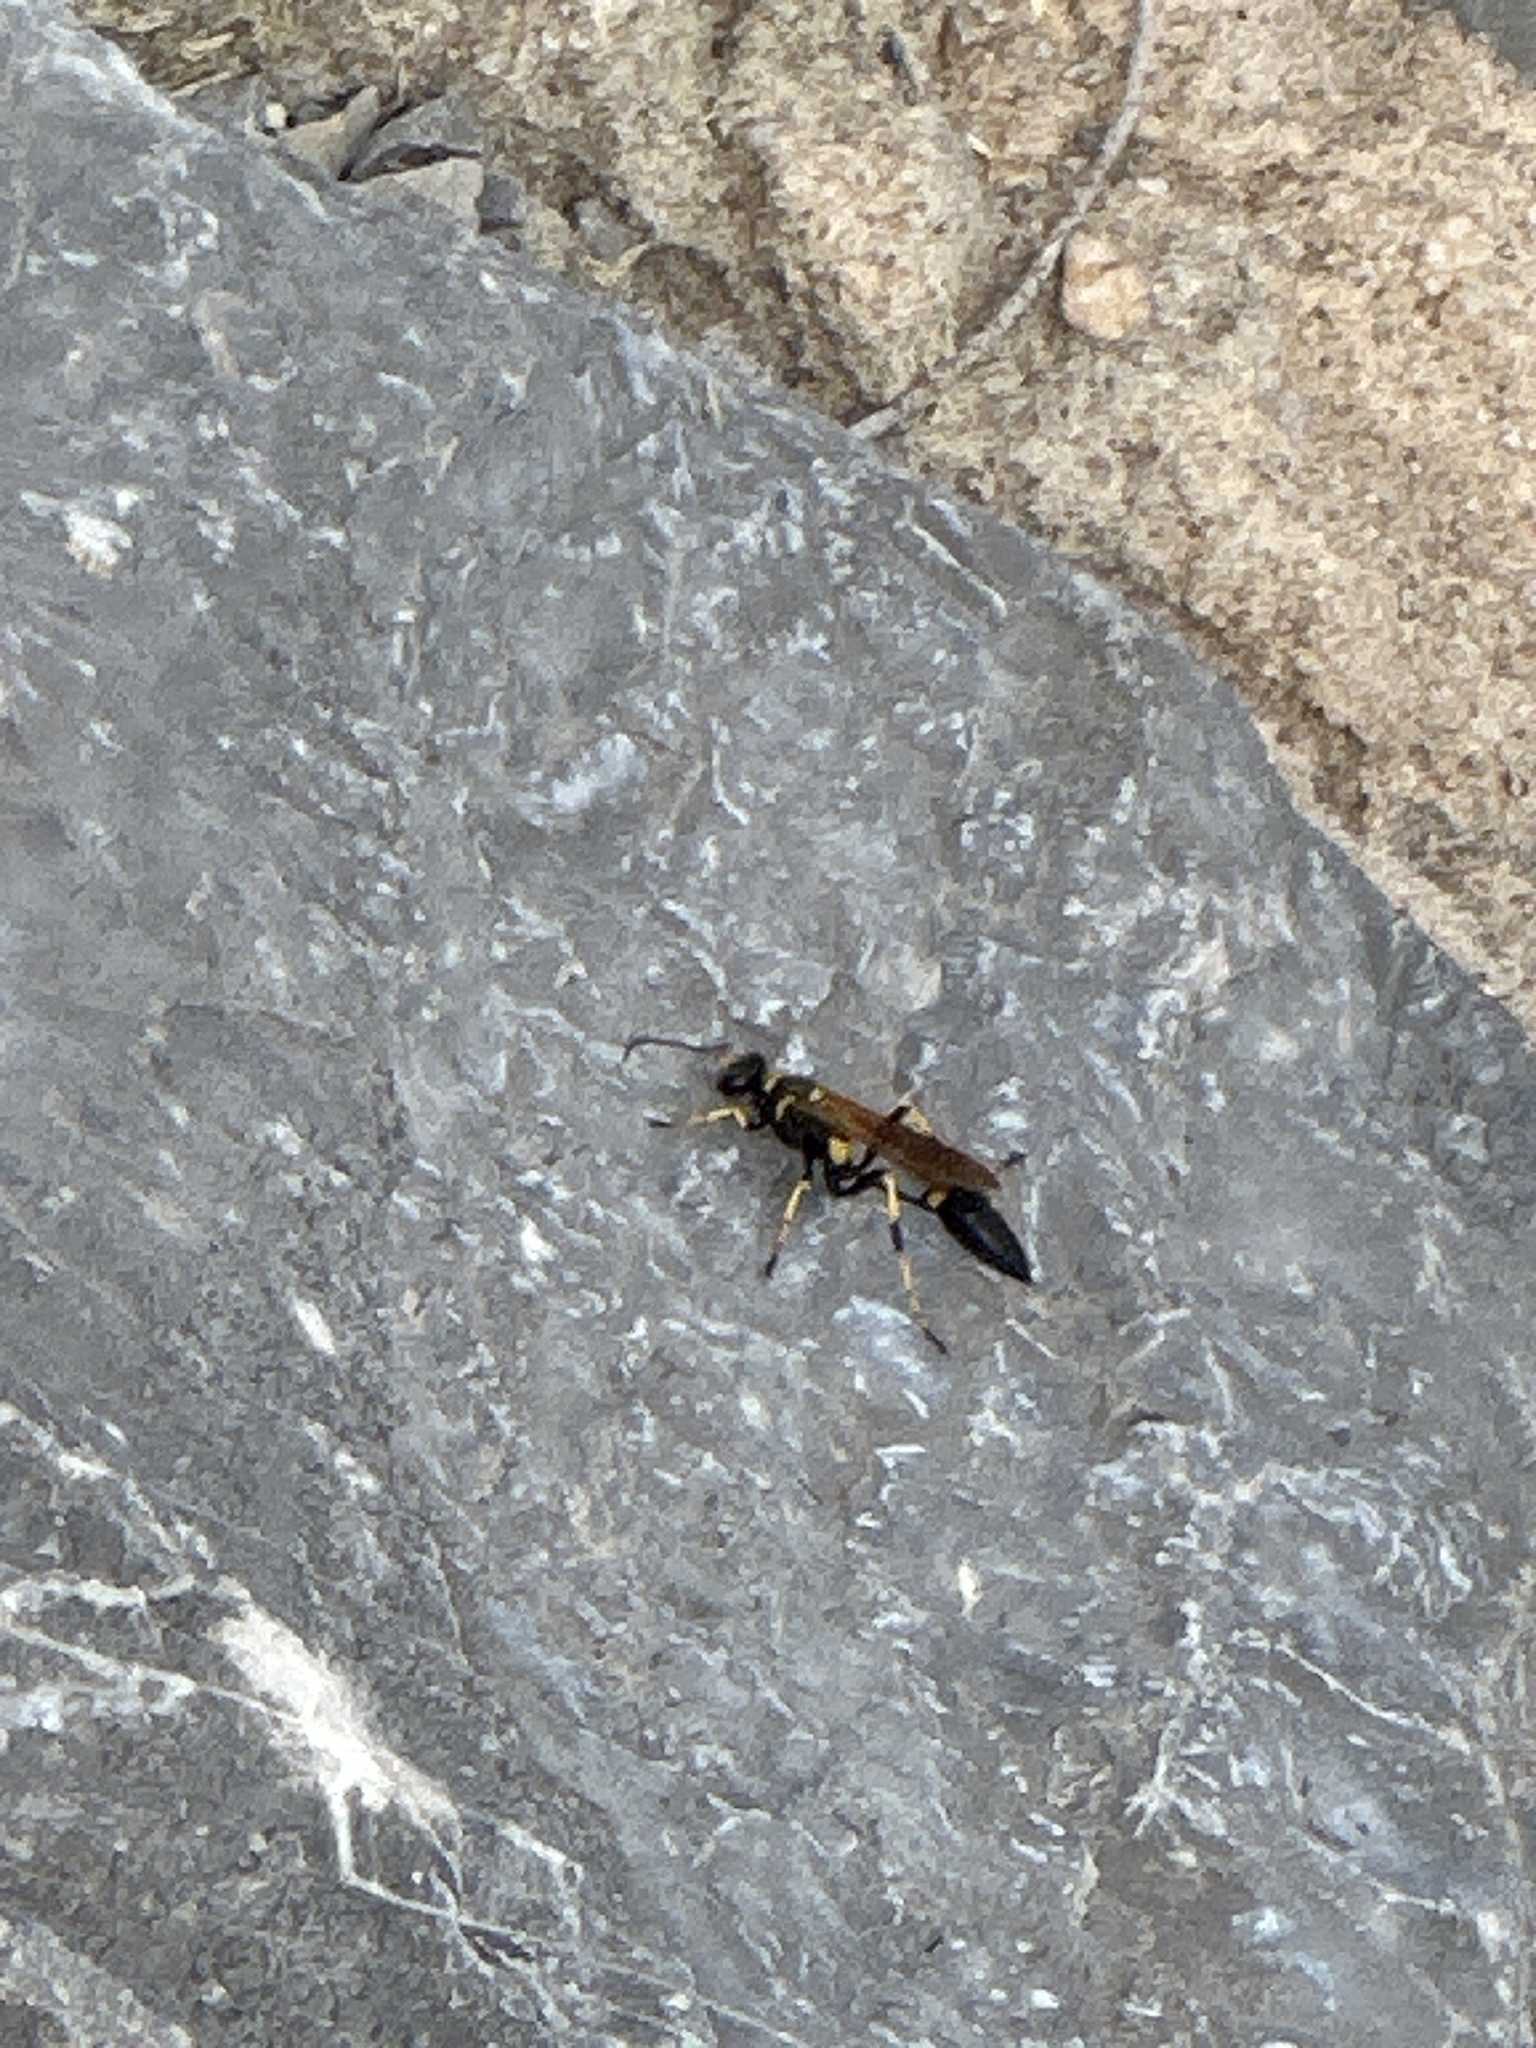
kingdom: Animalia
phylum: Arthropoda
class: Insecta
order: Hymenoptera
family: Sphecidae
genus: Sceliphron
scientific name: Sceliphron caementarium
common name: Mud dauber
